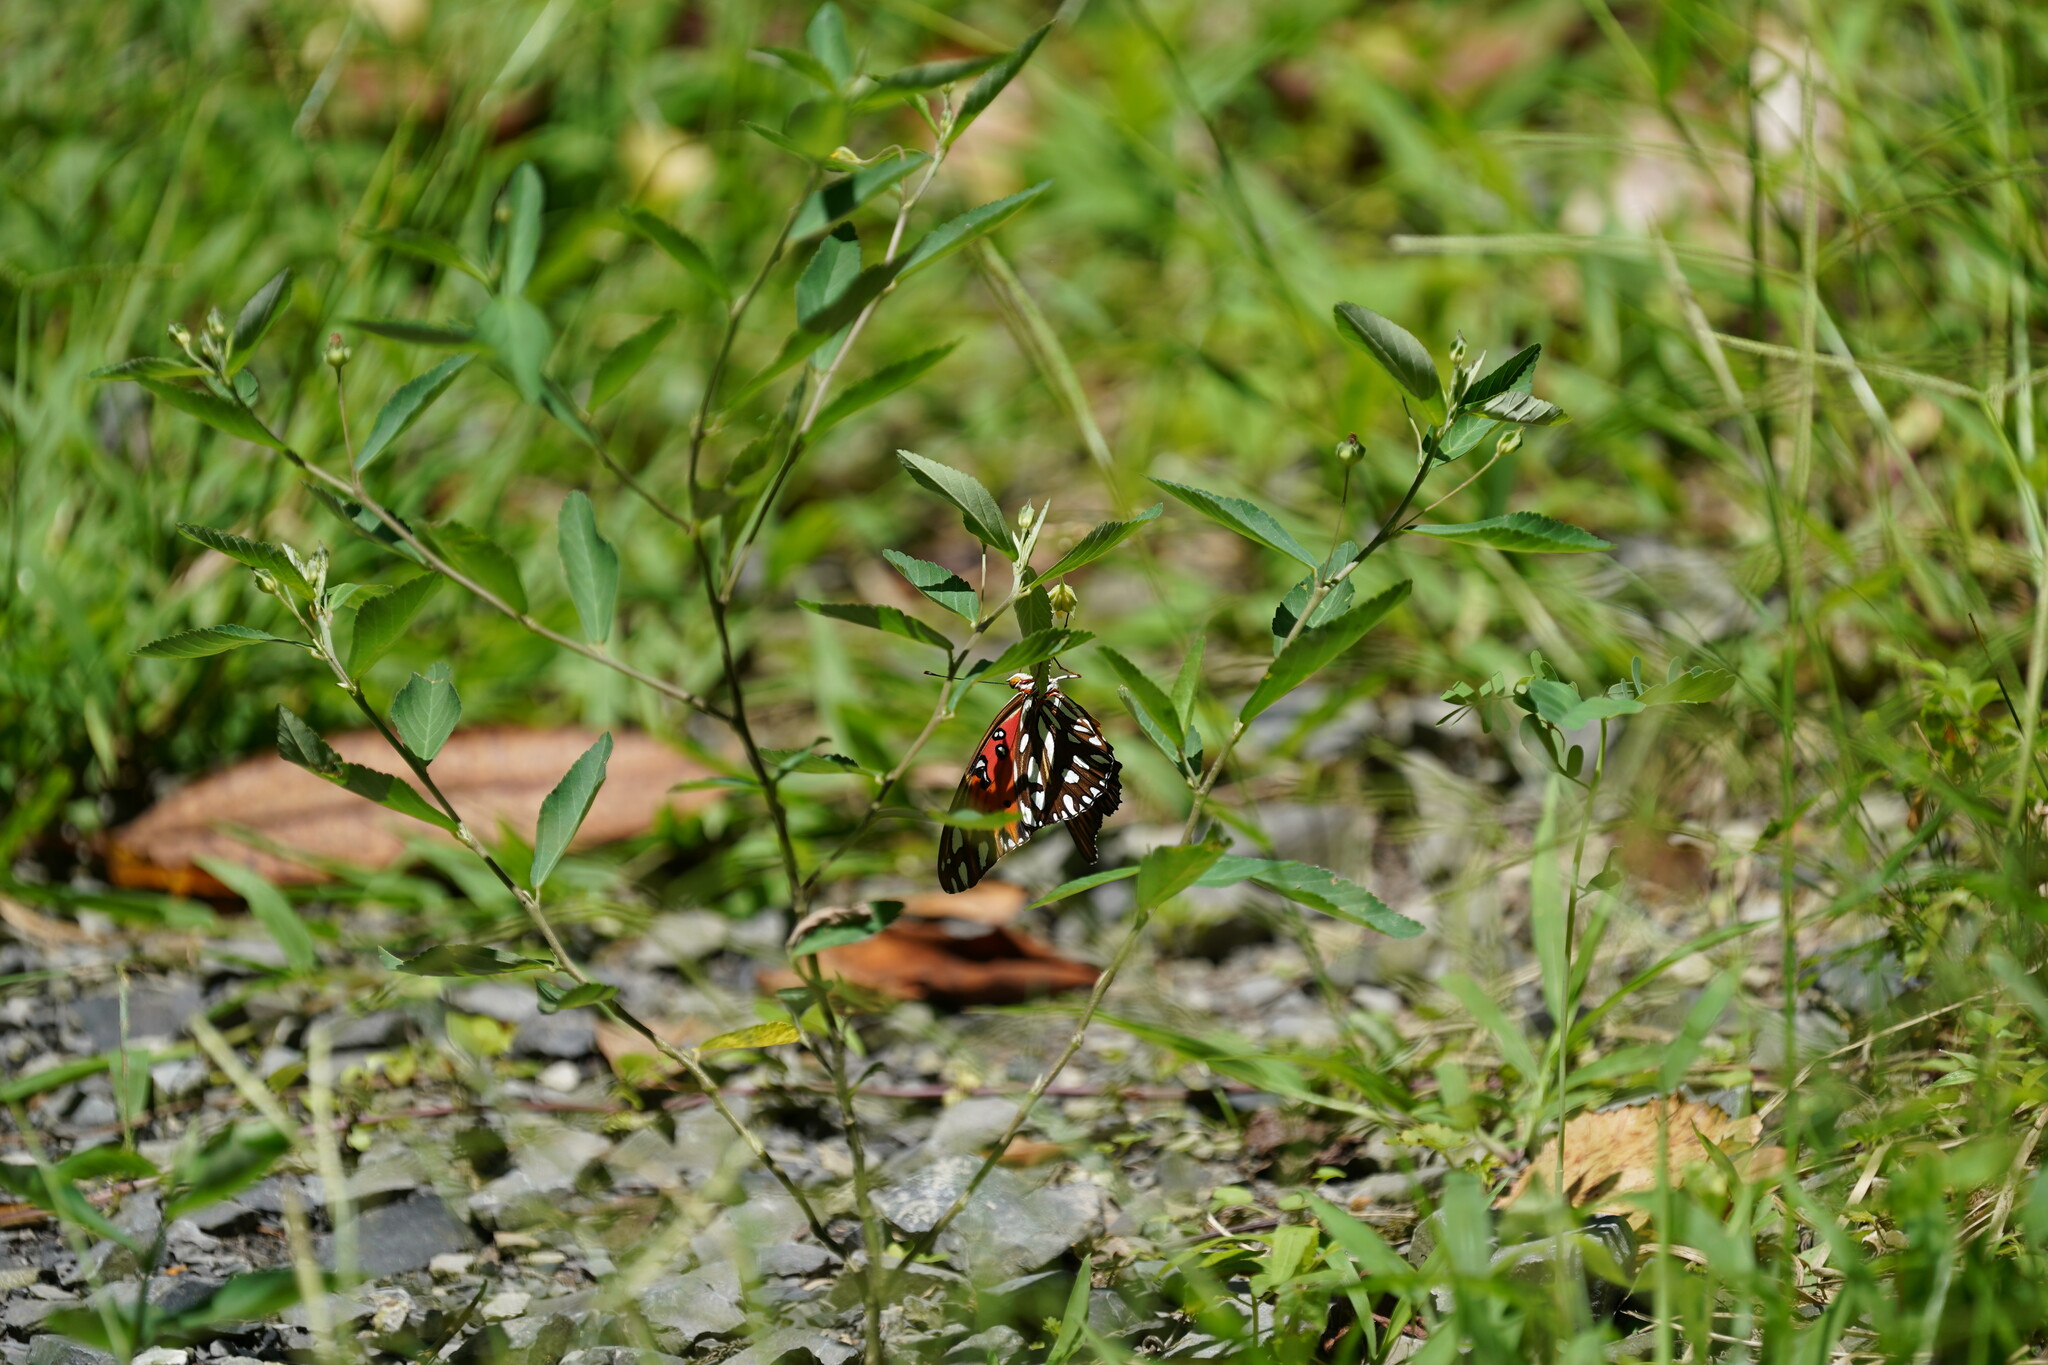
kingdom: Animalia
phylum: Arthropoda
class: Insecta
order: Lepidoptera
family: Nymphalidae
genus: Dione
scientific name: Dione vanillae
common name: Gulf fritillary
